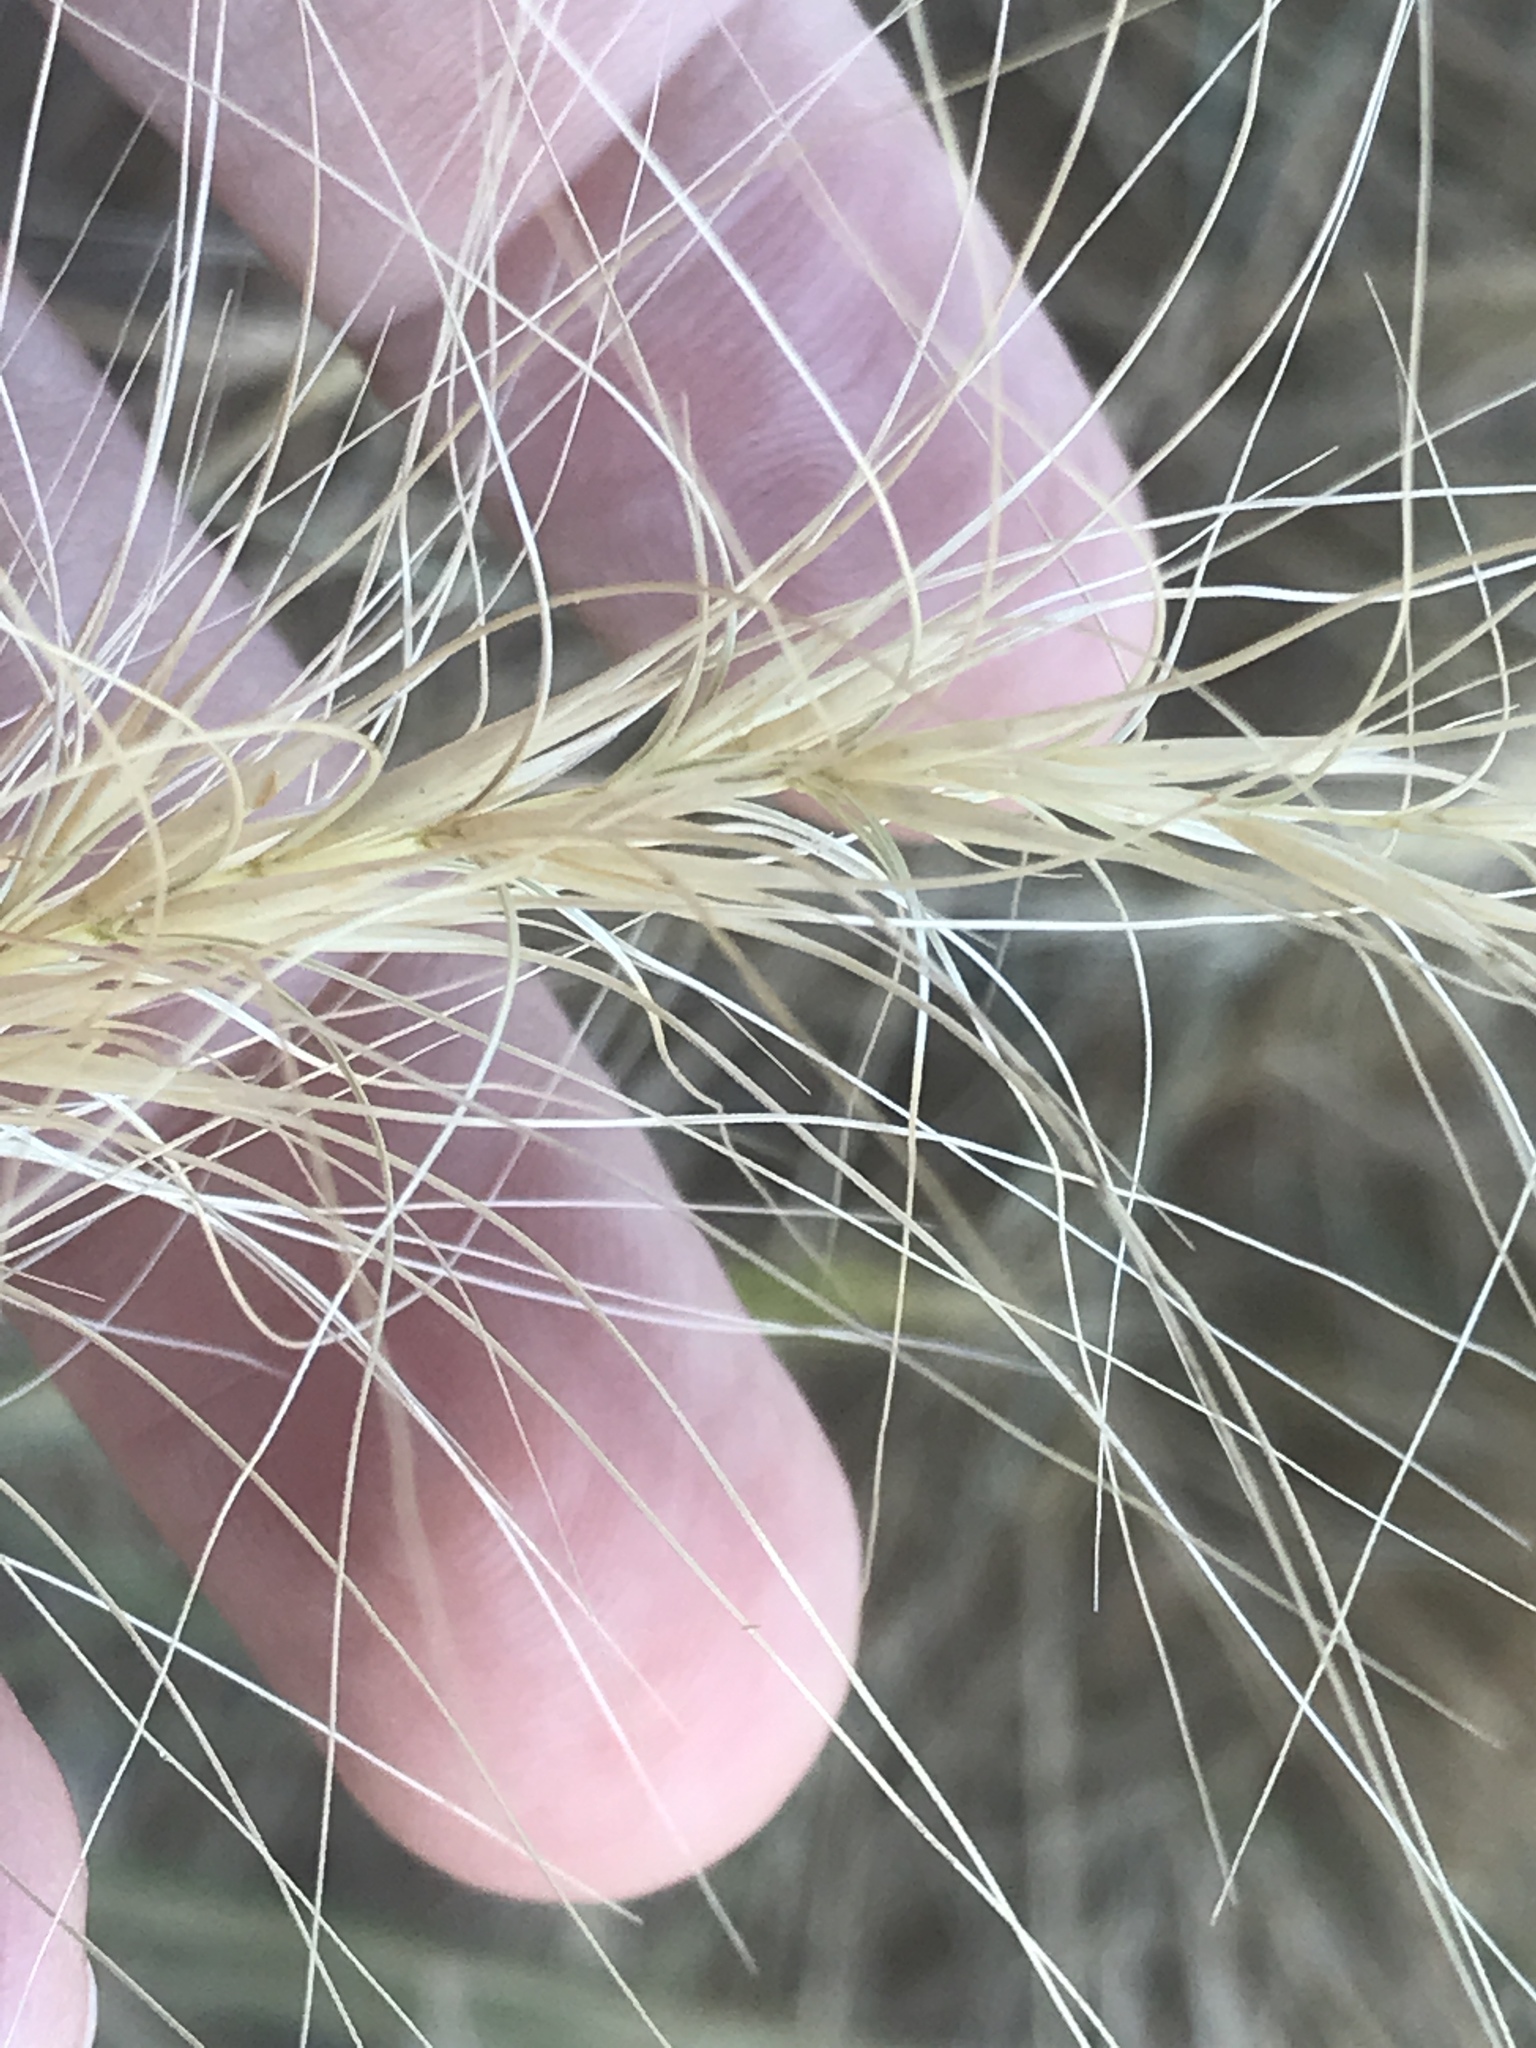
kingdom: Plantae
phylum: Tracheophyta
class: Liliopsida
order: Poales
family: Poaceae
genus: Elymus
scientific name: Elymus elymoides
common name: Bottlebrush squirreltail
